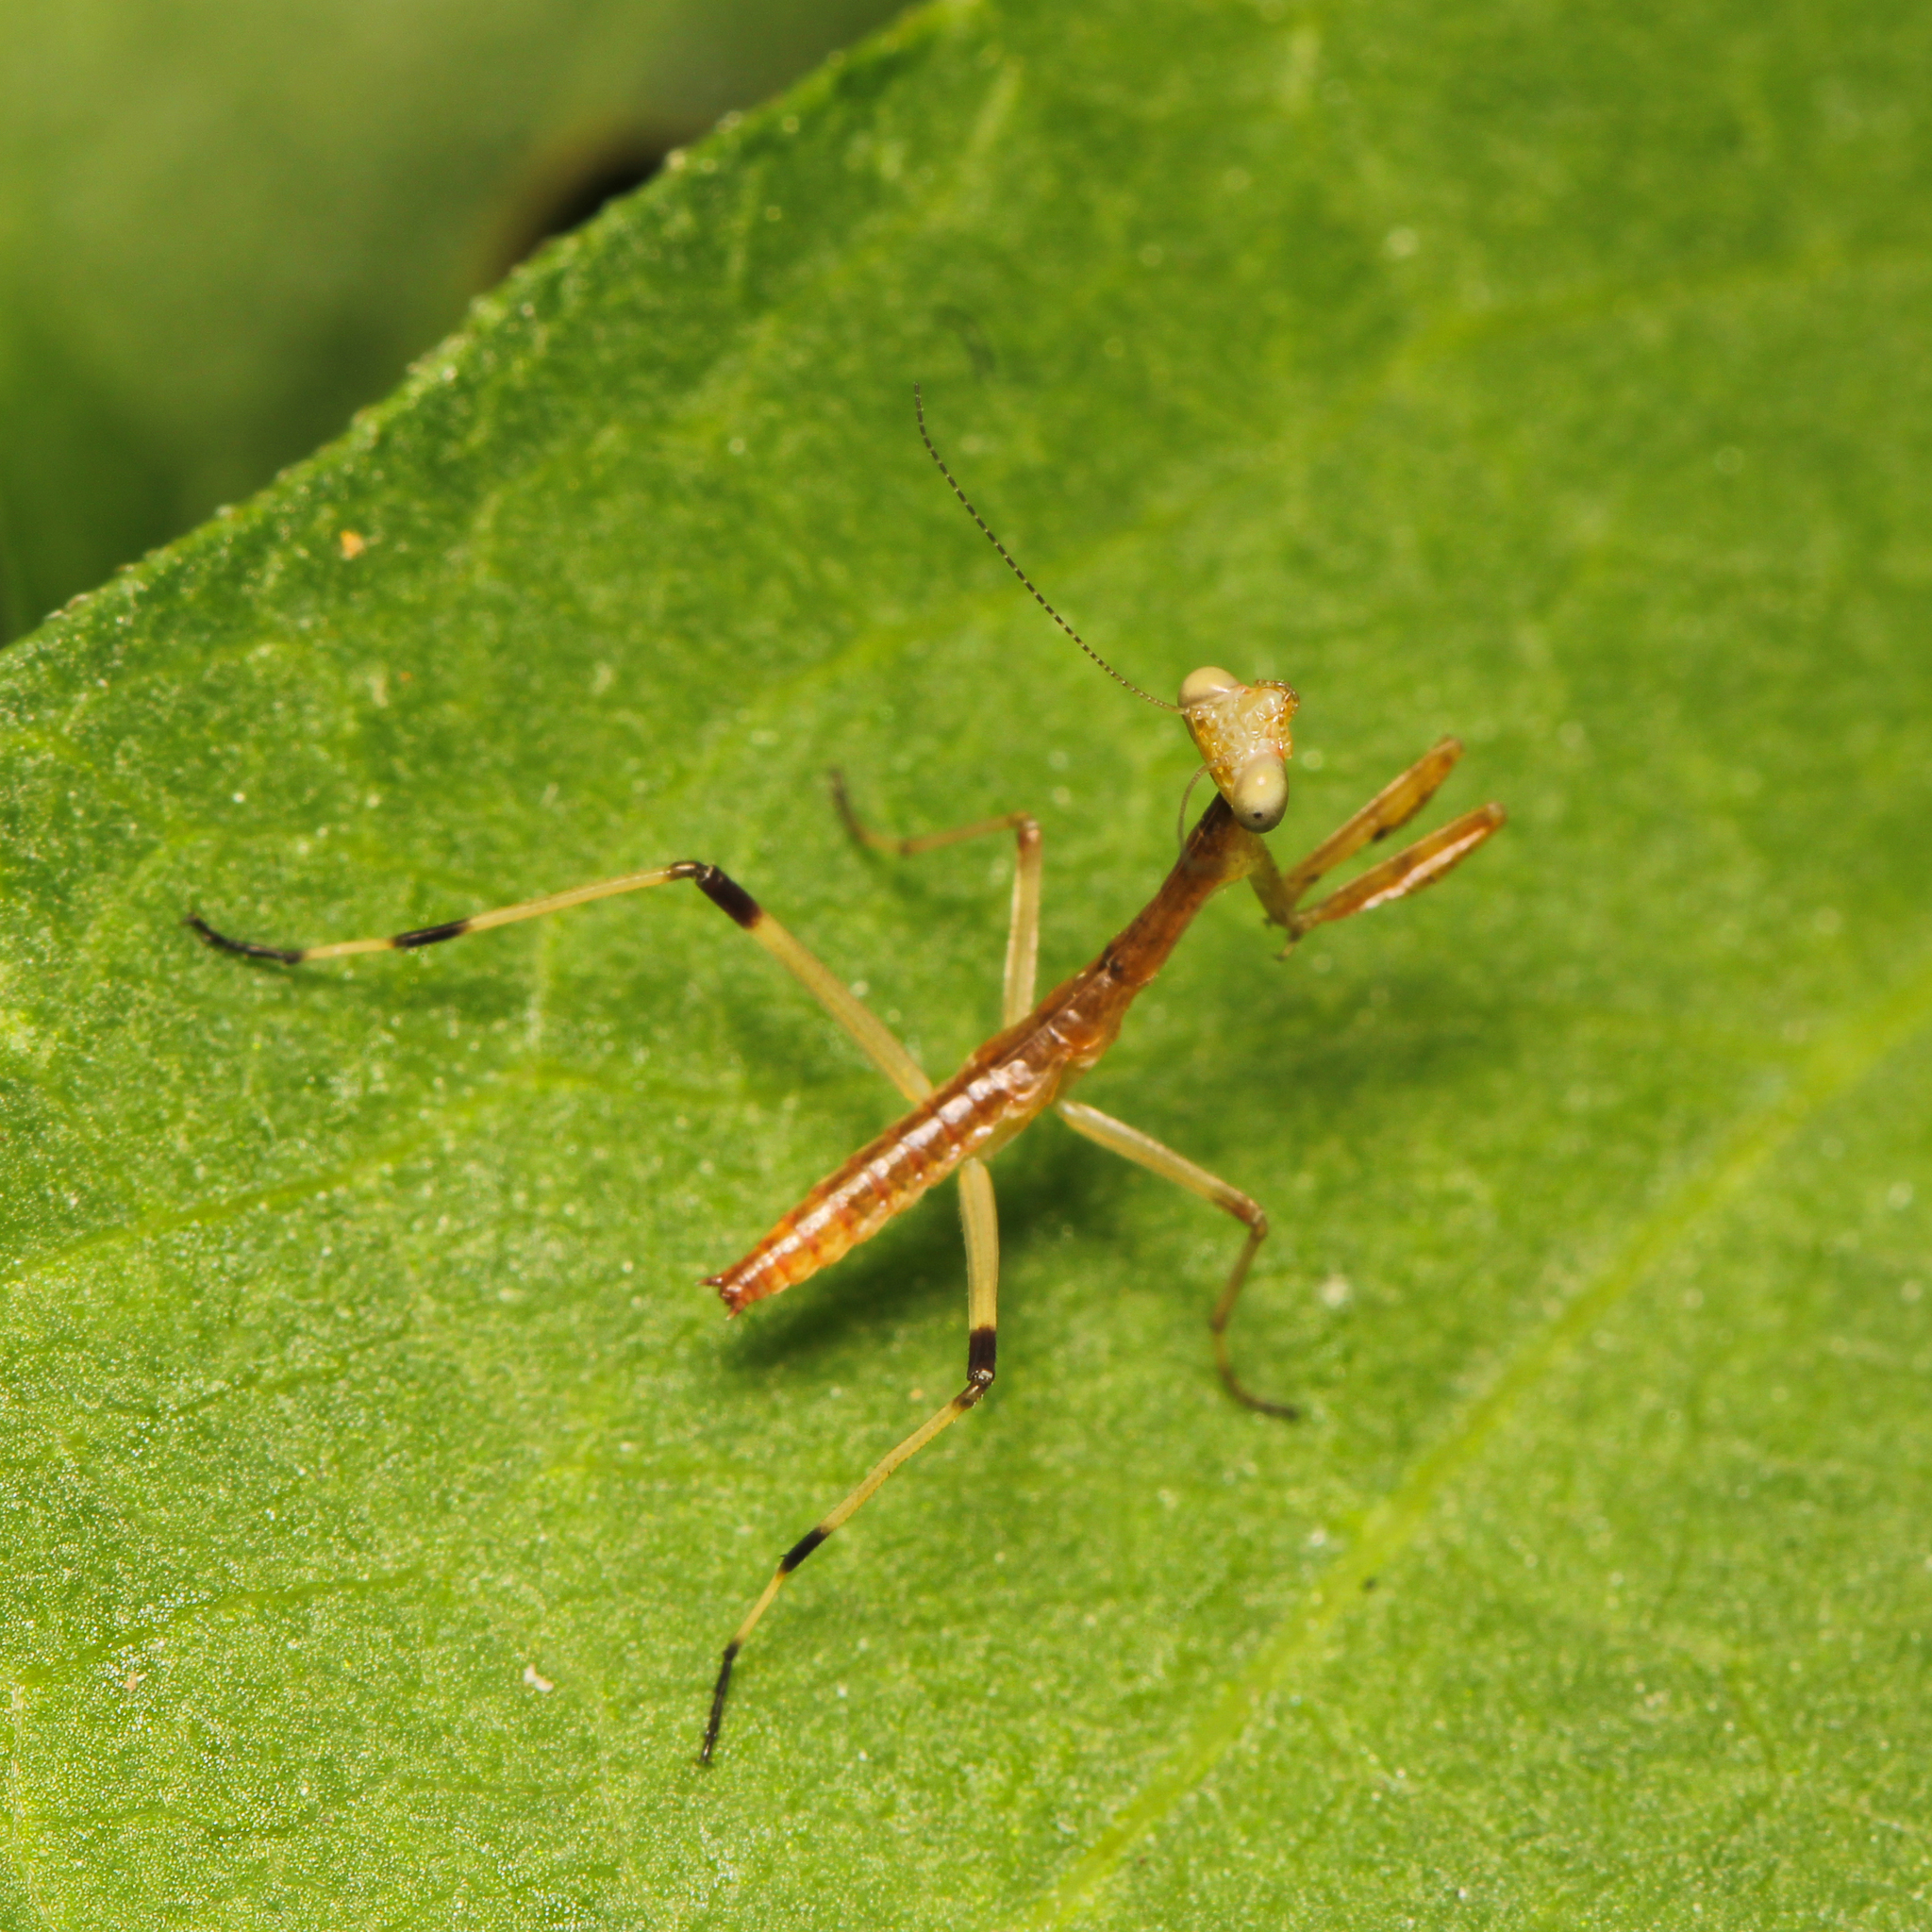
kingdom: Animalia
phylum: Arthropoda
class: Insecta
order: Mantodea
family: Mantidae
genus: Stagmomantis
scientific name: Stagmomantis carolina
